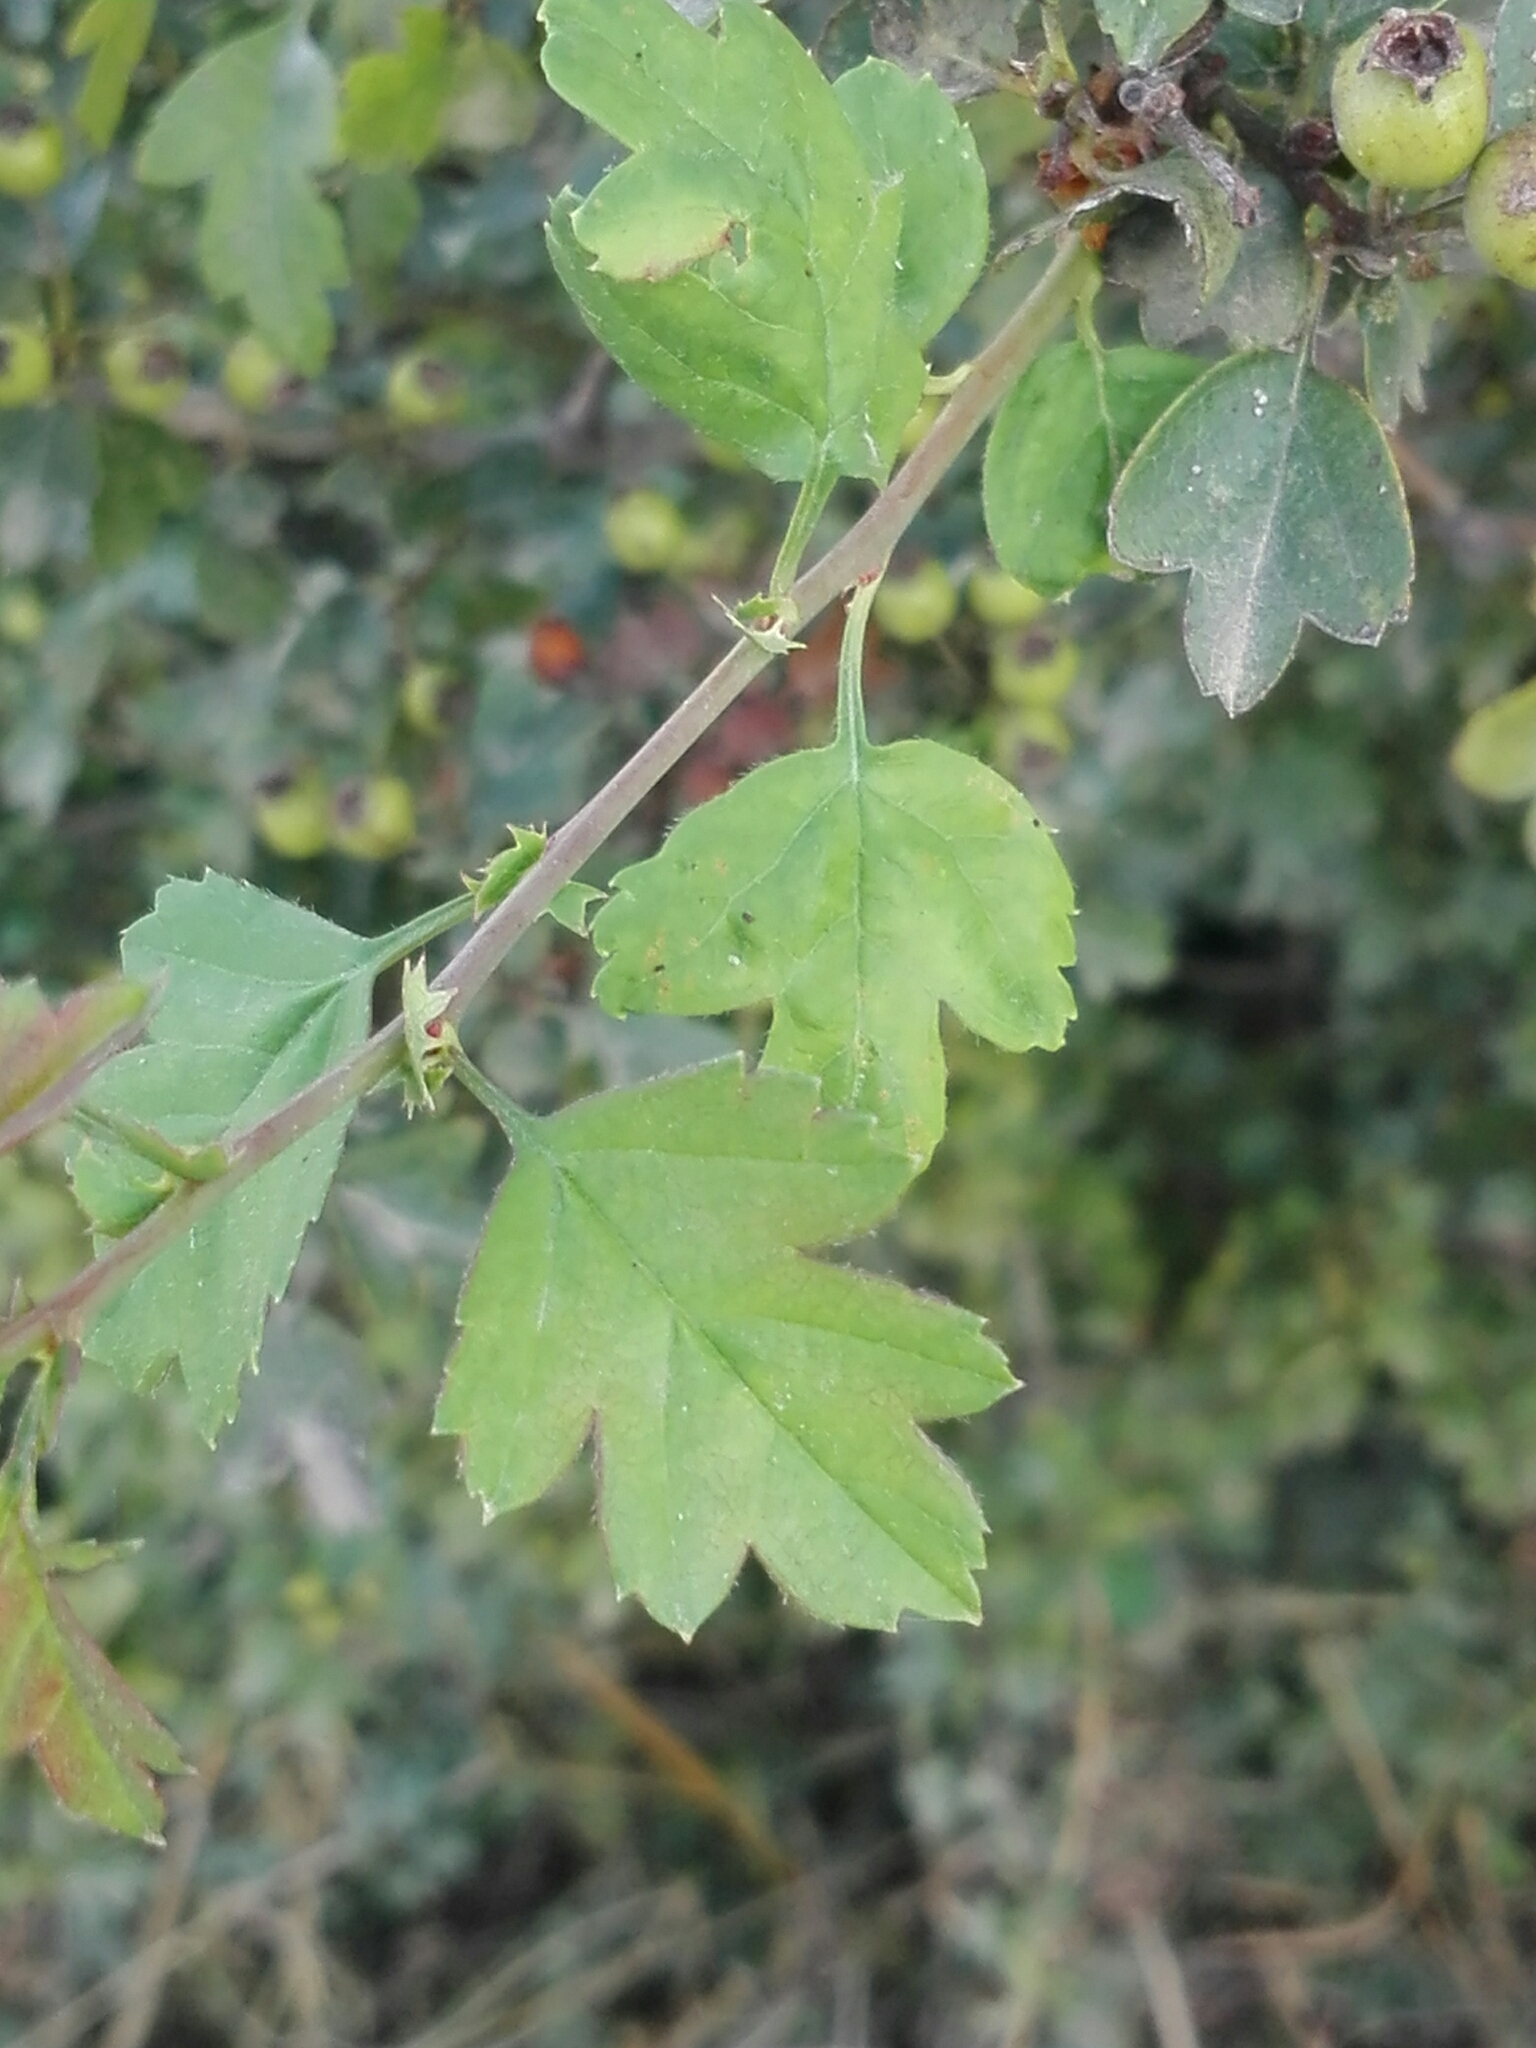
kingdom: Plantae
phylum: Tracheophyta
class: Magnoliopsida
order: Rosales
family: Rosaceae
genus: Crataegus
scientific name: Crataegus monogyna
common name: Hawthorn
